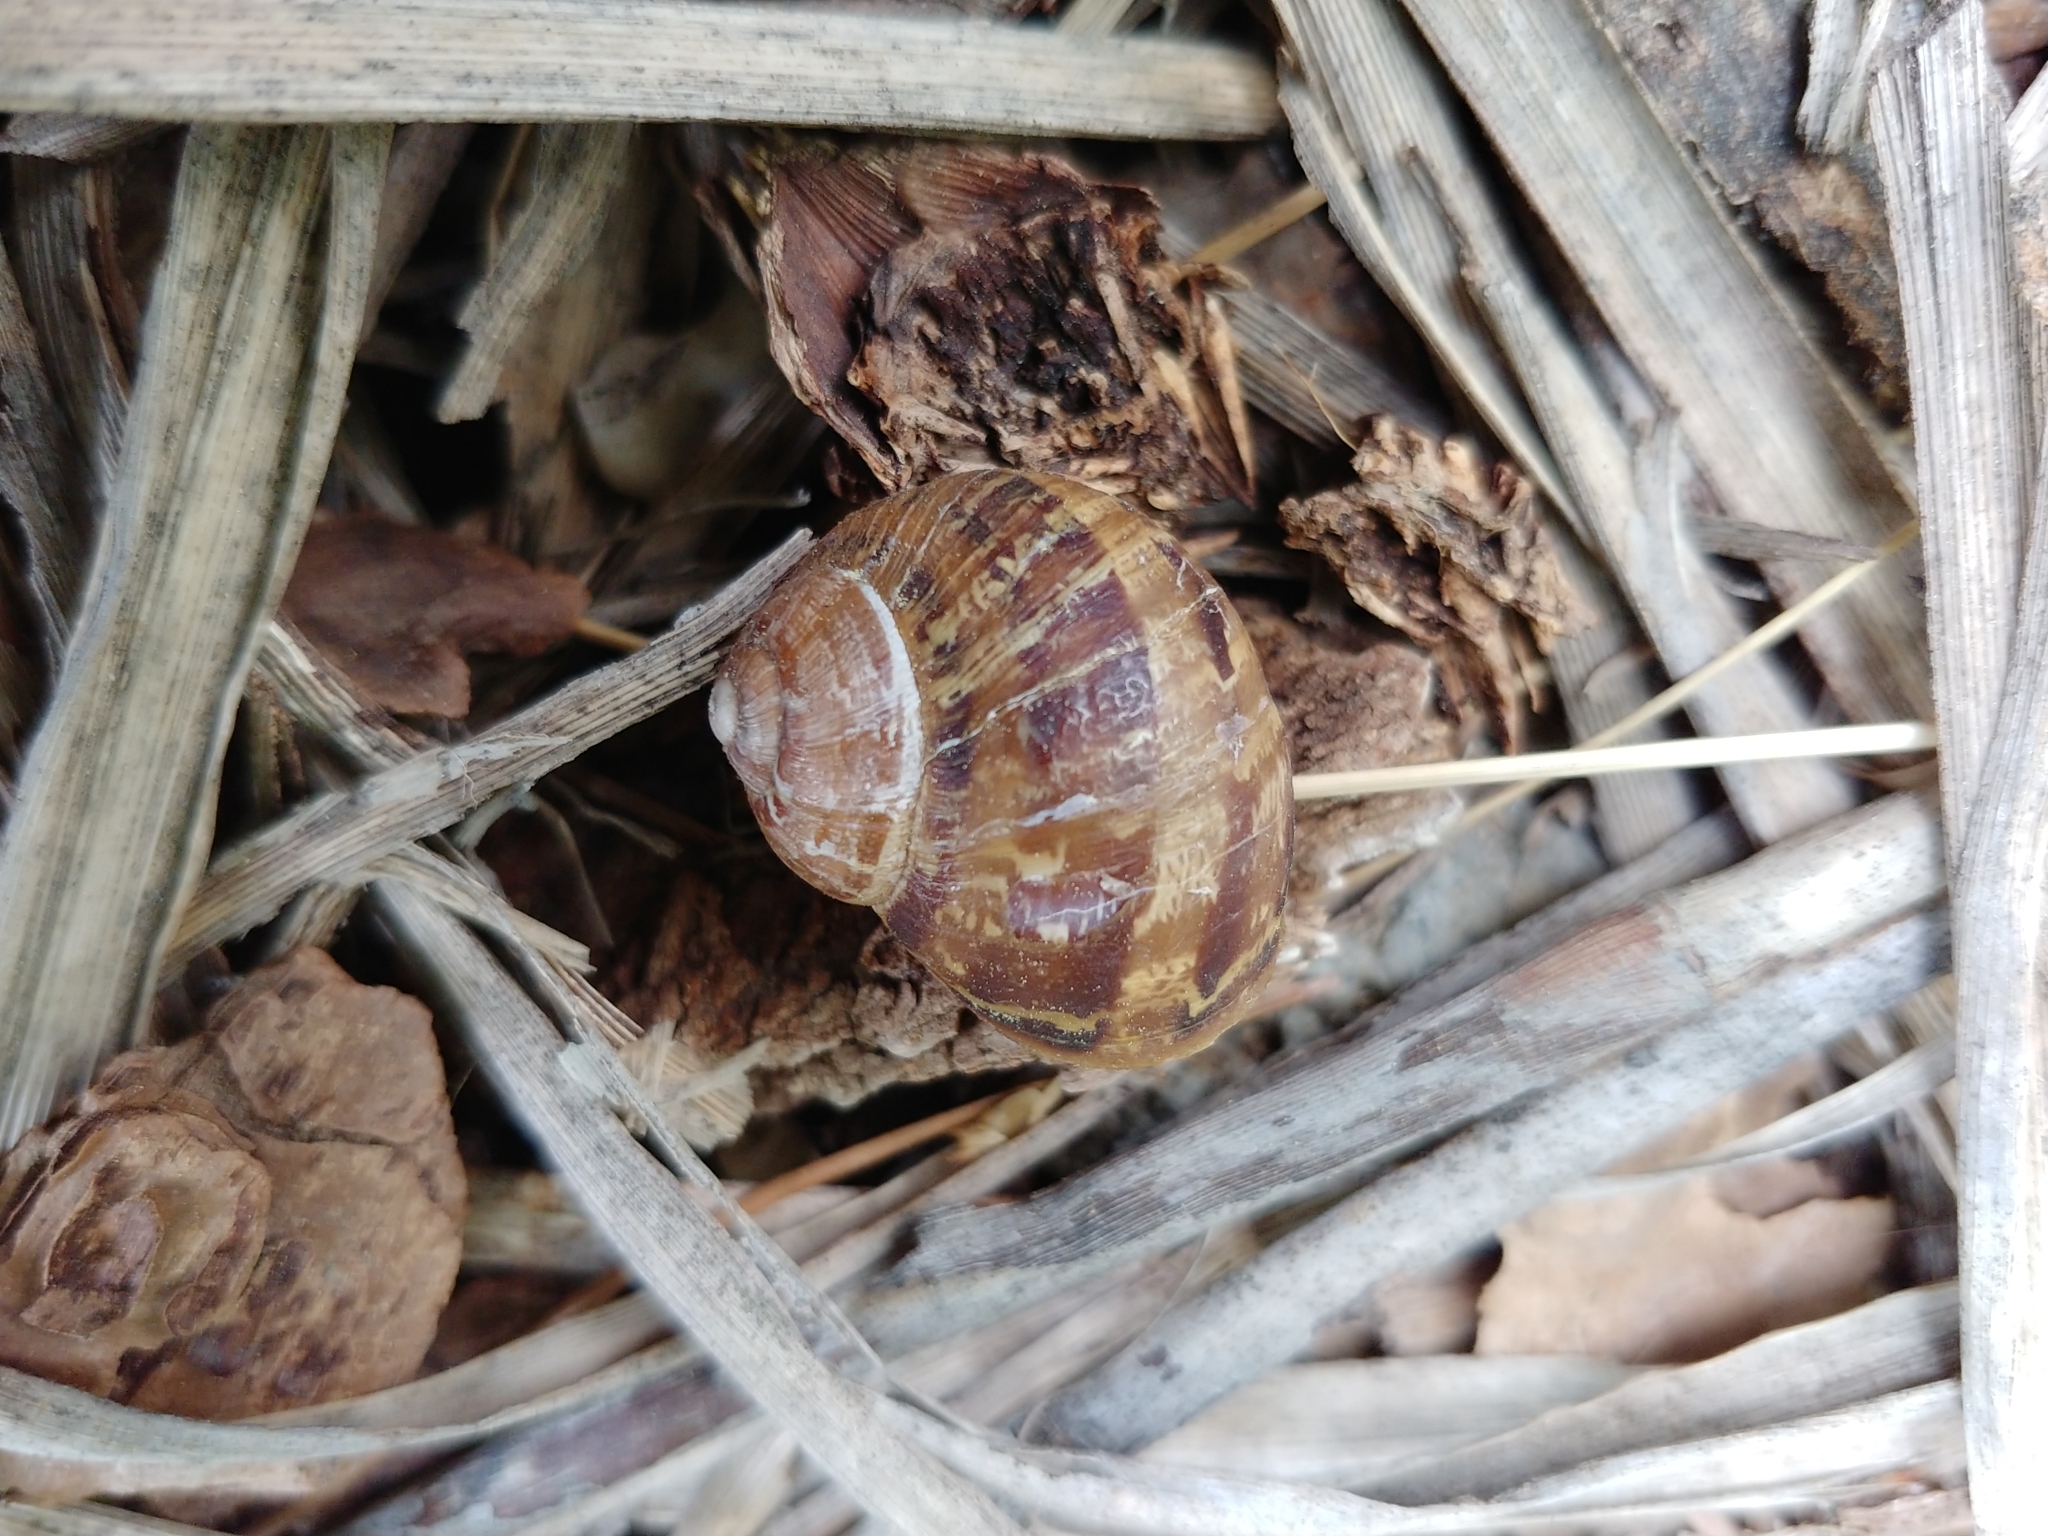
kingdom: Animalia
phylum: Mollusca
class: Gastropoda
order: Stylommatophora
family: Helicidae
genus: Cornu
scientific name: Cornu aspersum
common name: Brown garden snail
